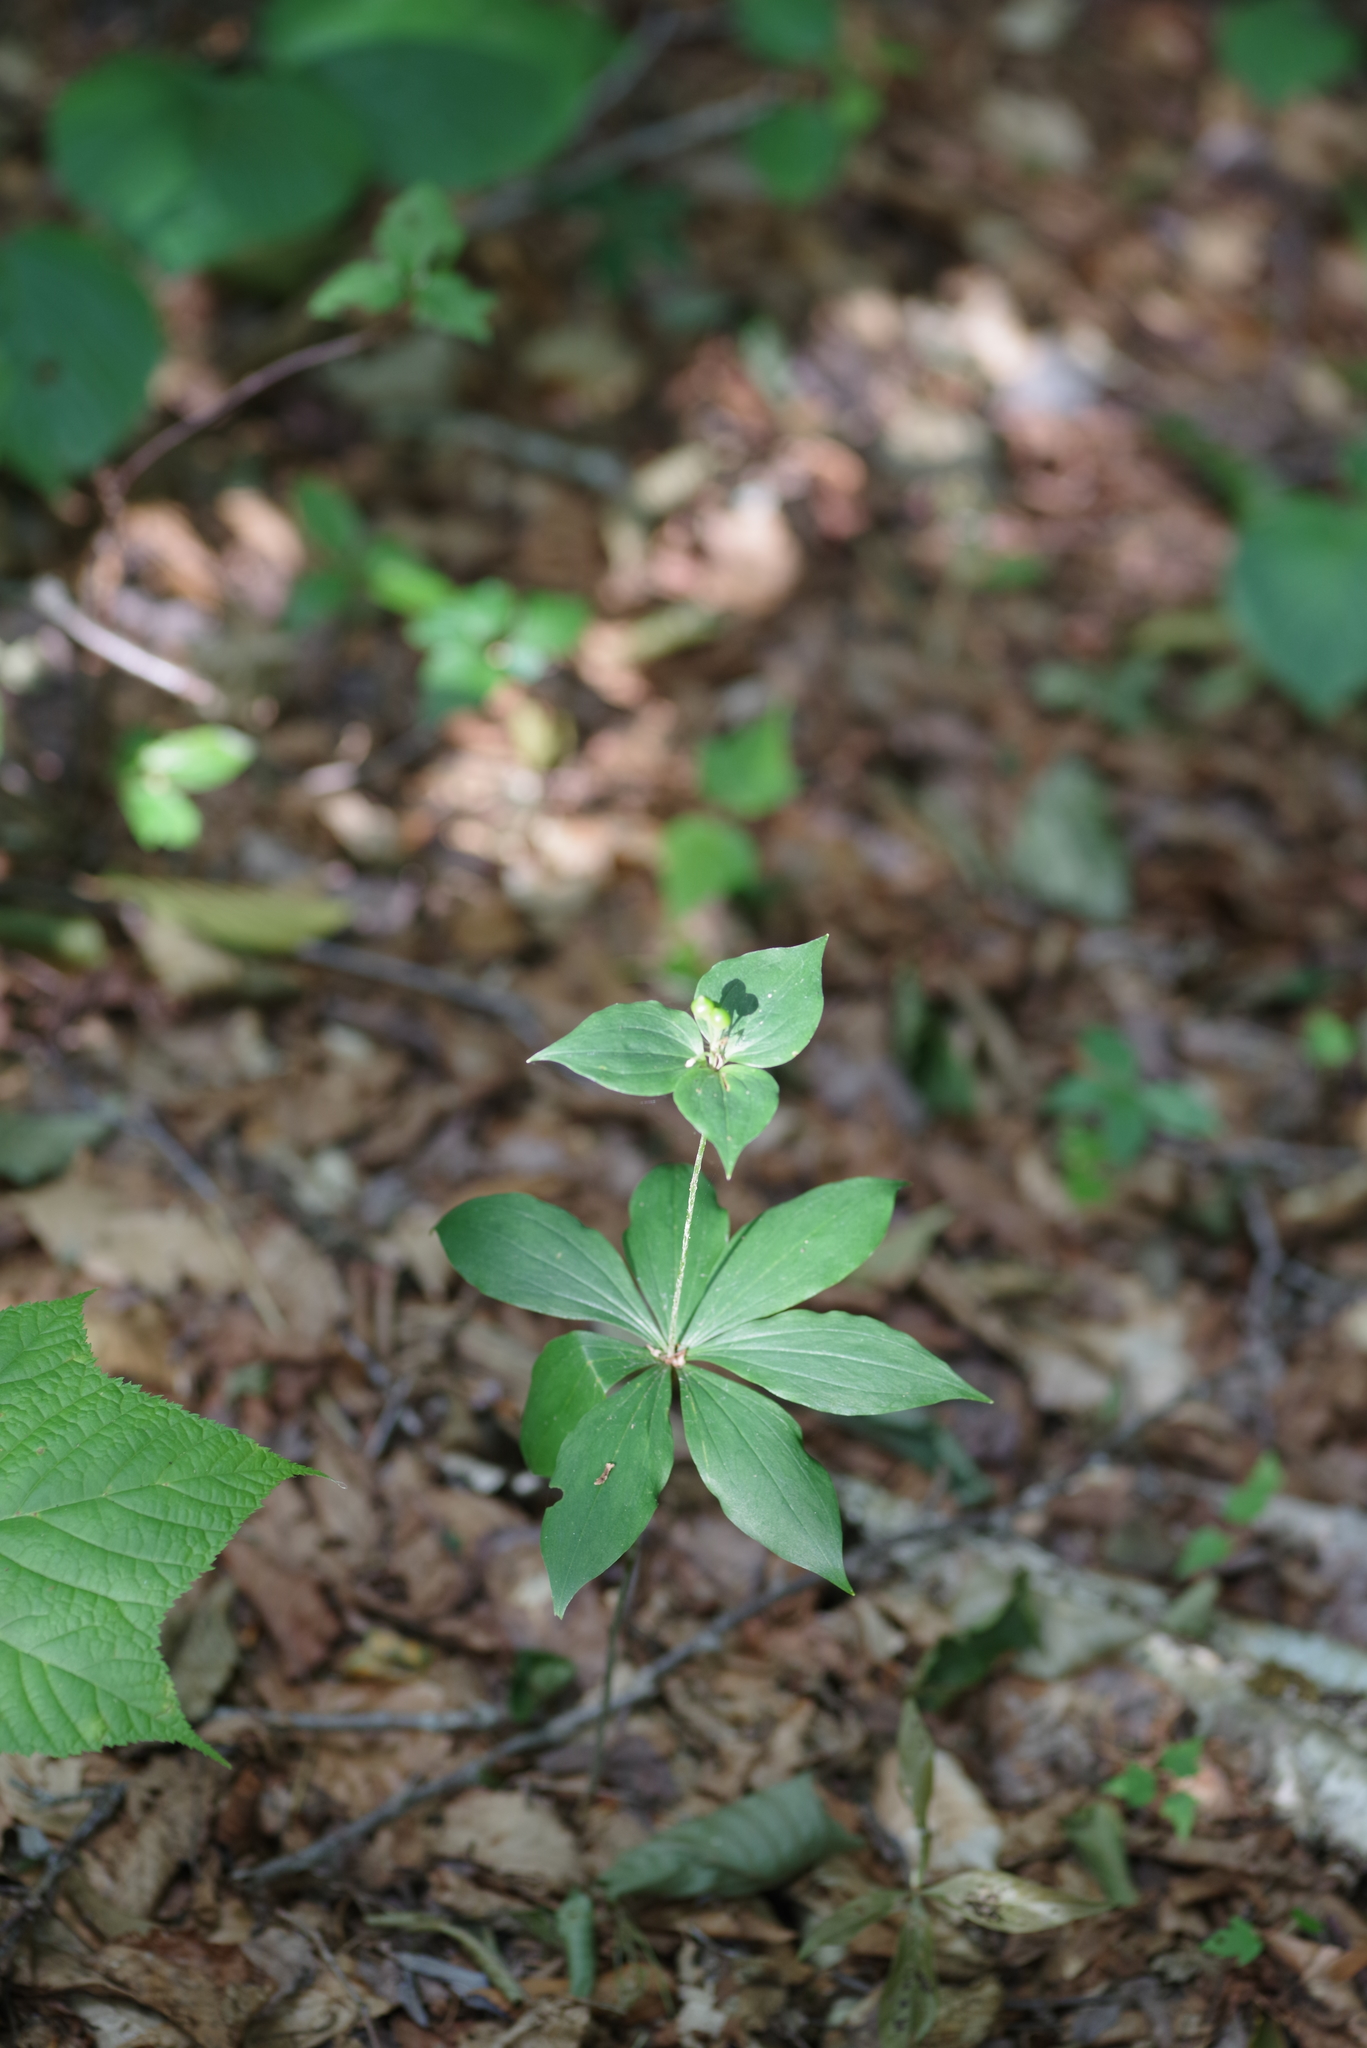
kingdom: Plantae
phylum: Tracheophyta
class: Liliopsida
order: Liliales
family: Liliaceae
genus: Medeola
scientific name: Medeola virginiana
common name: Indian cucumber-root
